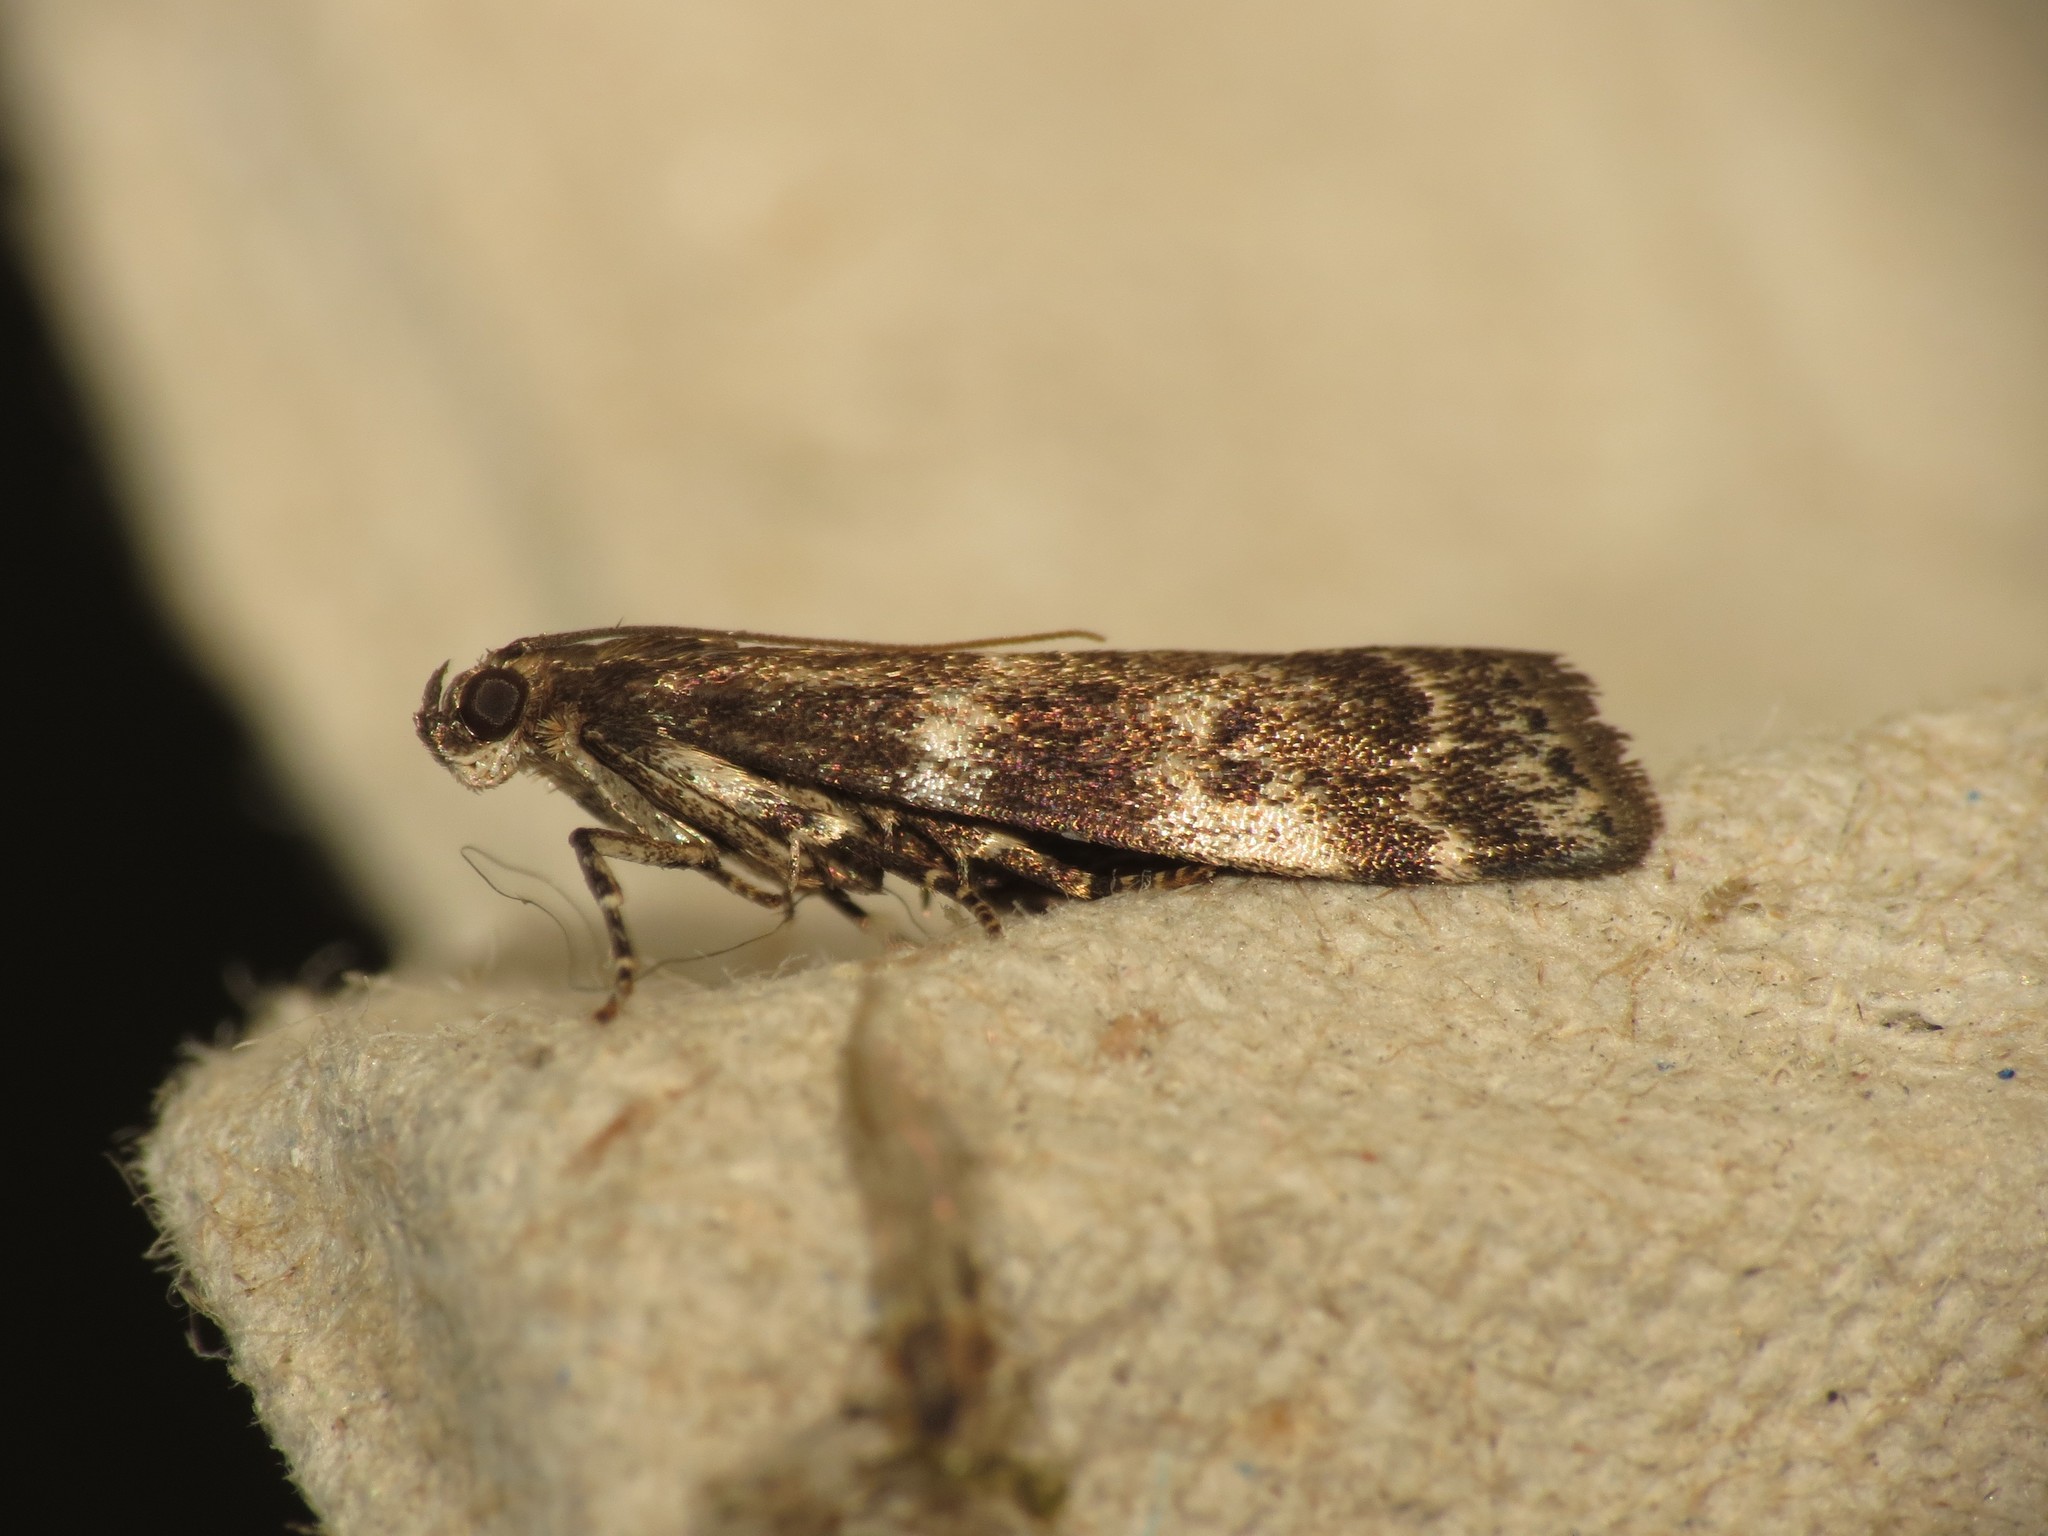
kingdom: Animalia
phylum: Arthropoda
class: Insecta
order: Lepidoptera
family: Pyralidae
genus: Assara
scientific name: Assara terebrella
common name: Dark spruce knot-horn
